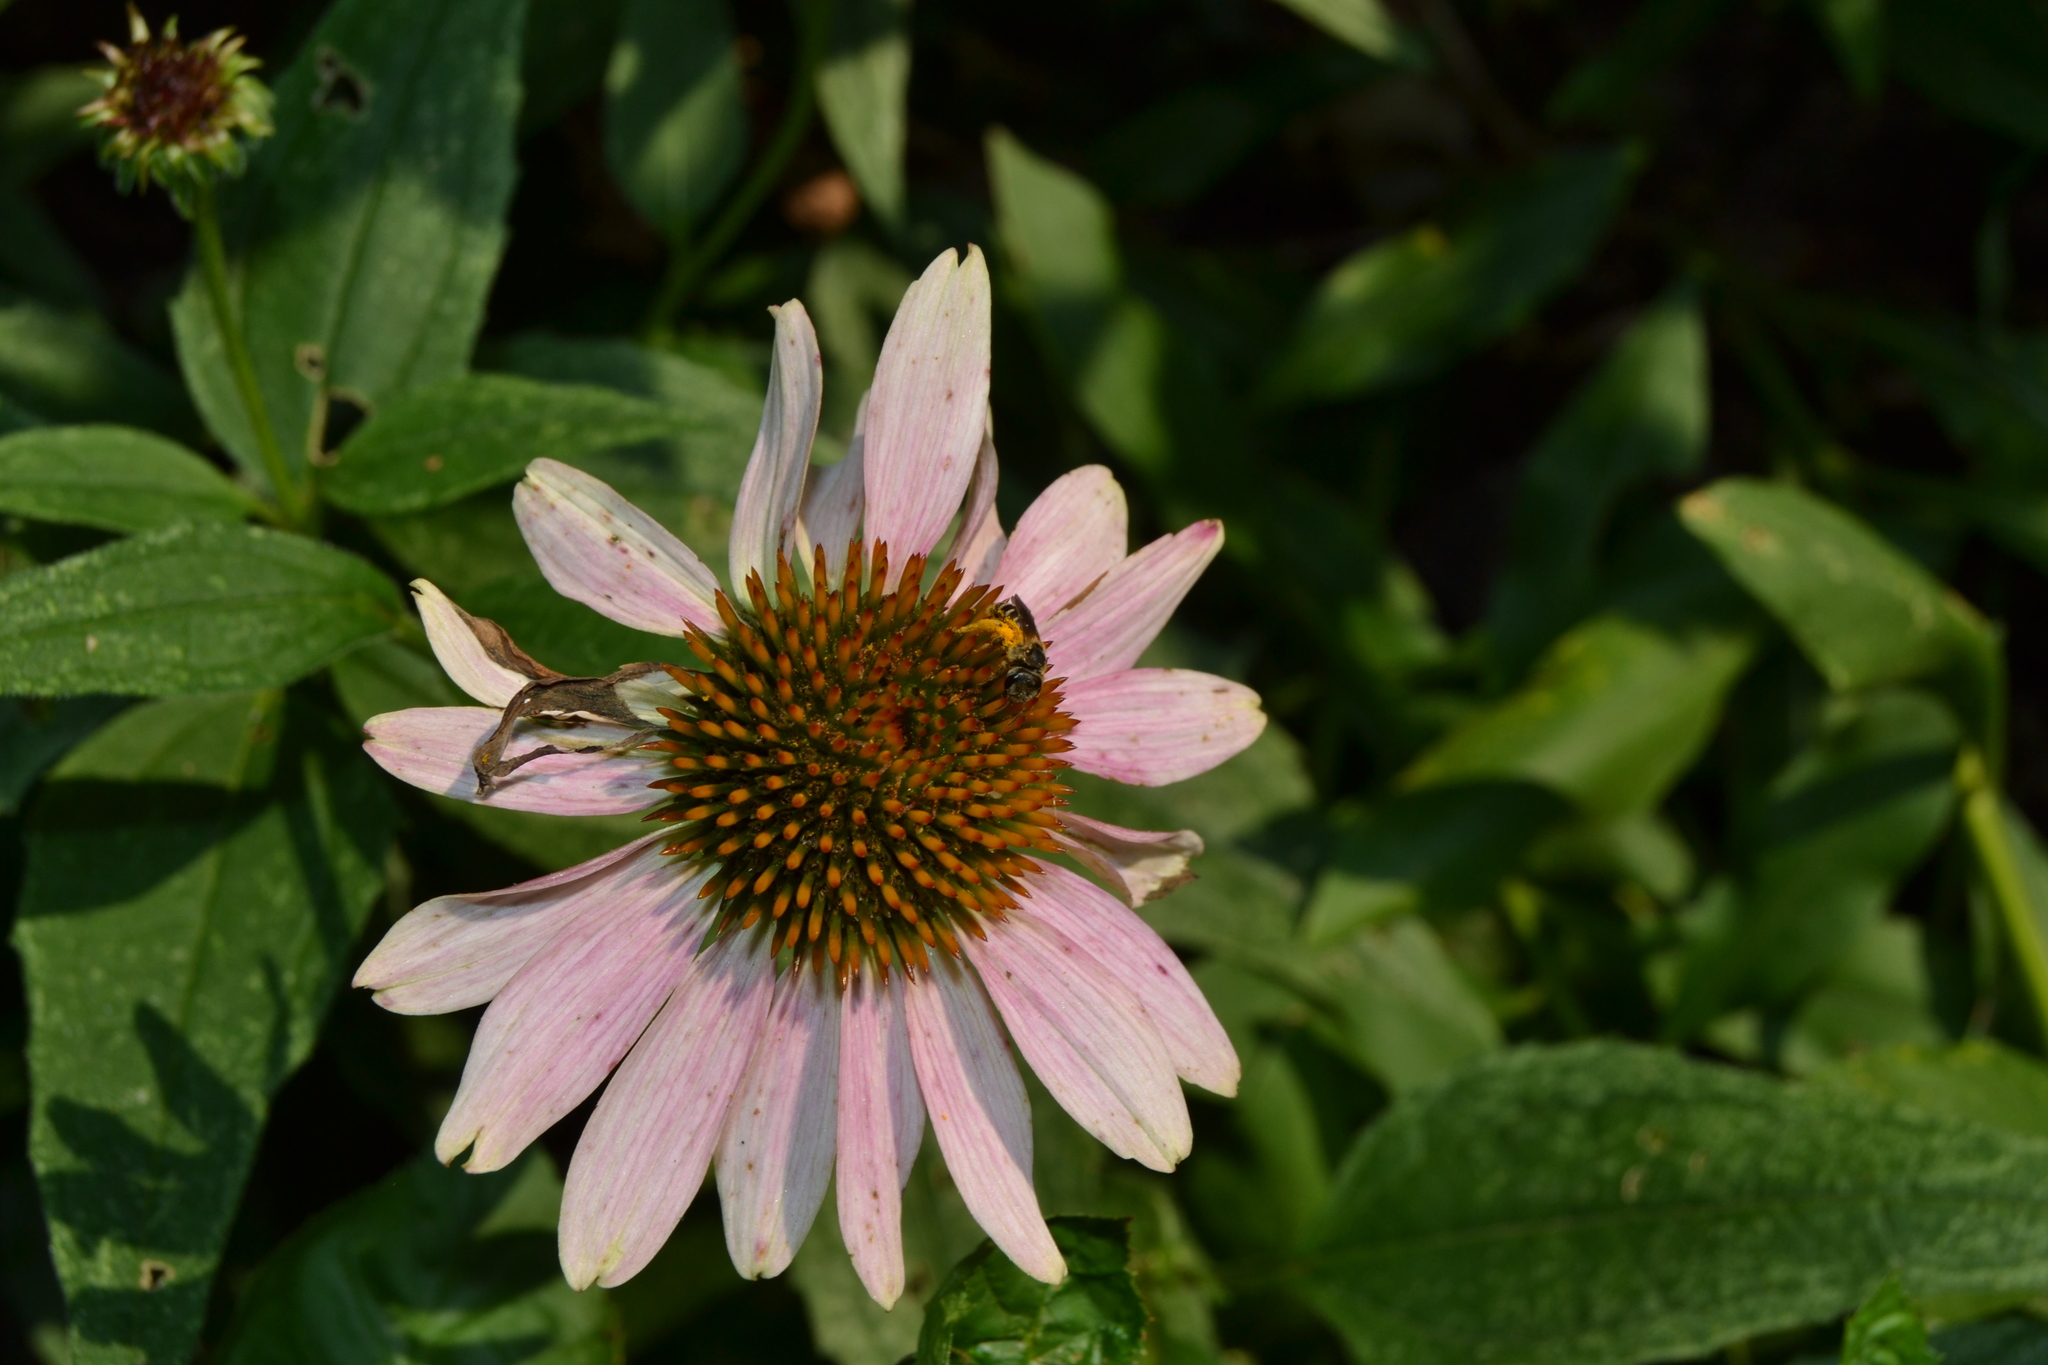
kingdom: Animalia
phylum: Arthropoda
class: Insecta
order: Hymenoptera
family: Halictidae
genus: Halictus
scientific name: Halictus ligatus
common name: Ligated furrow bee
